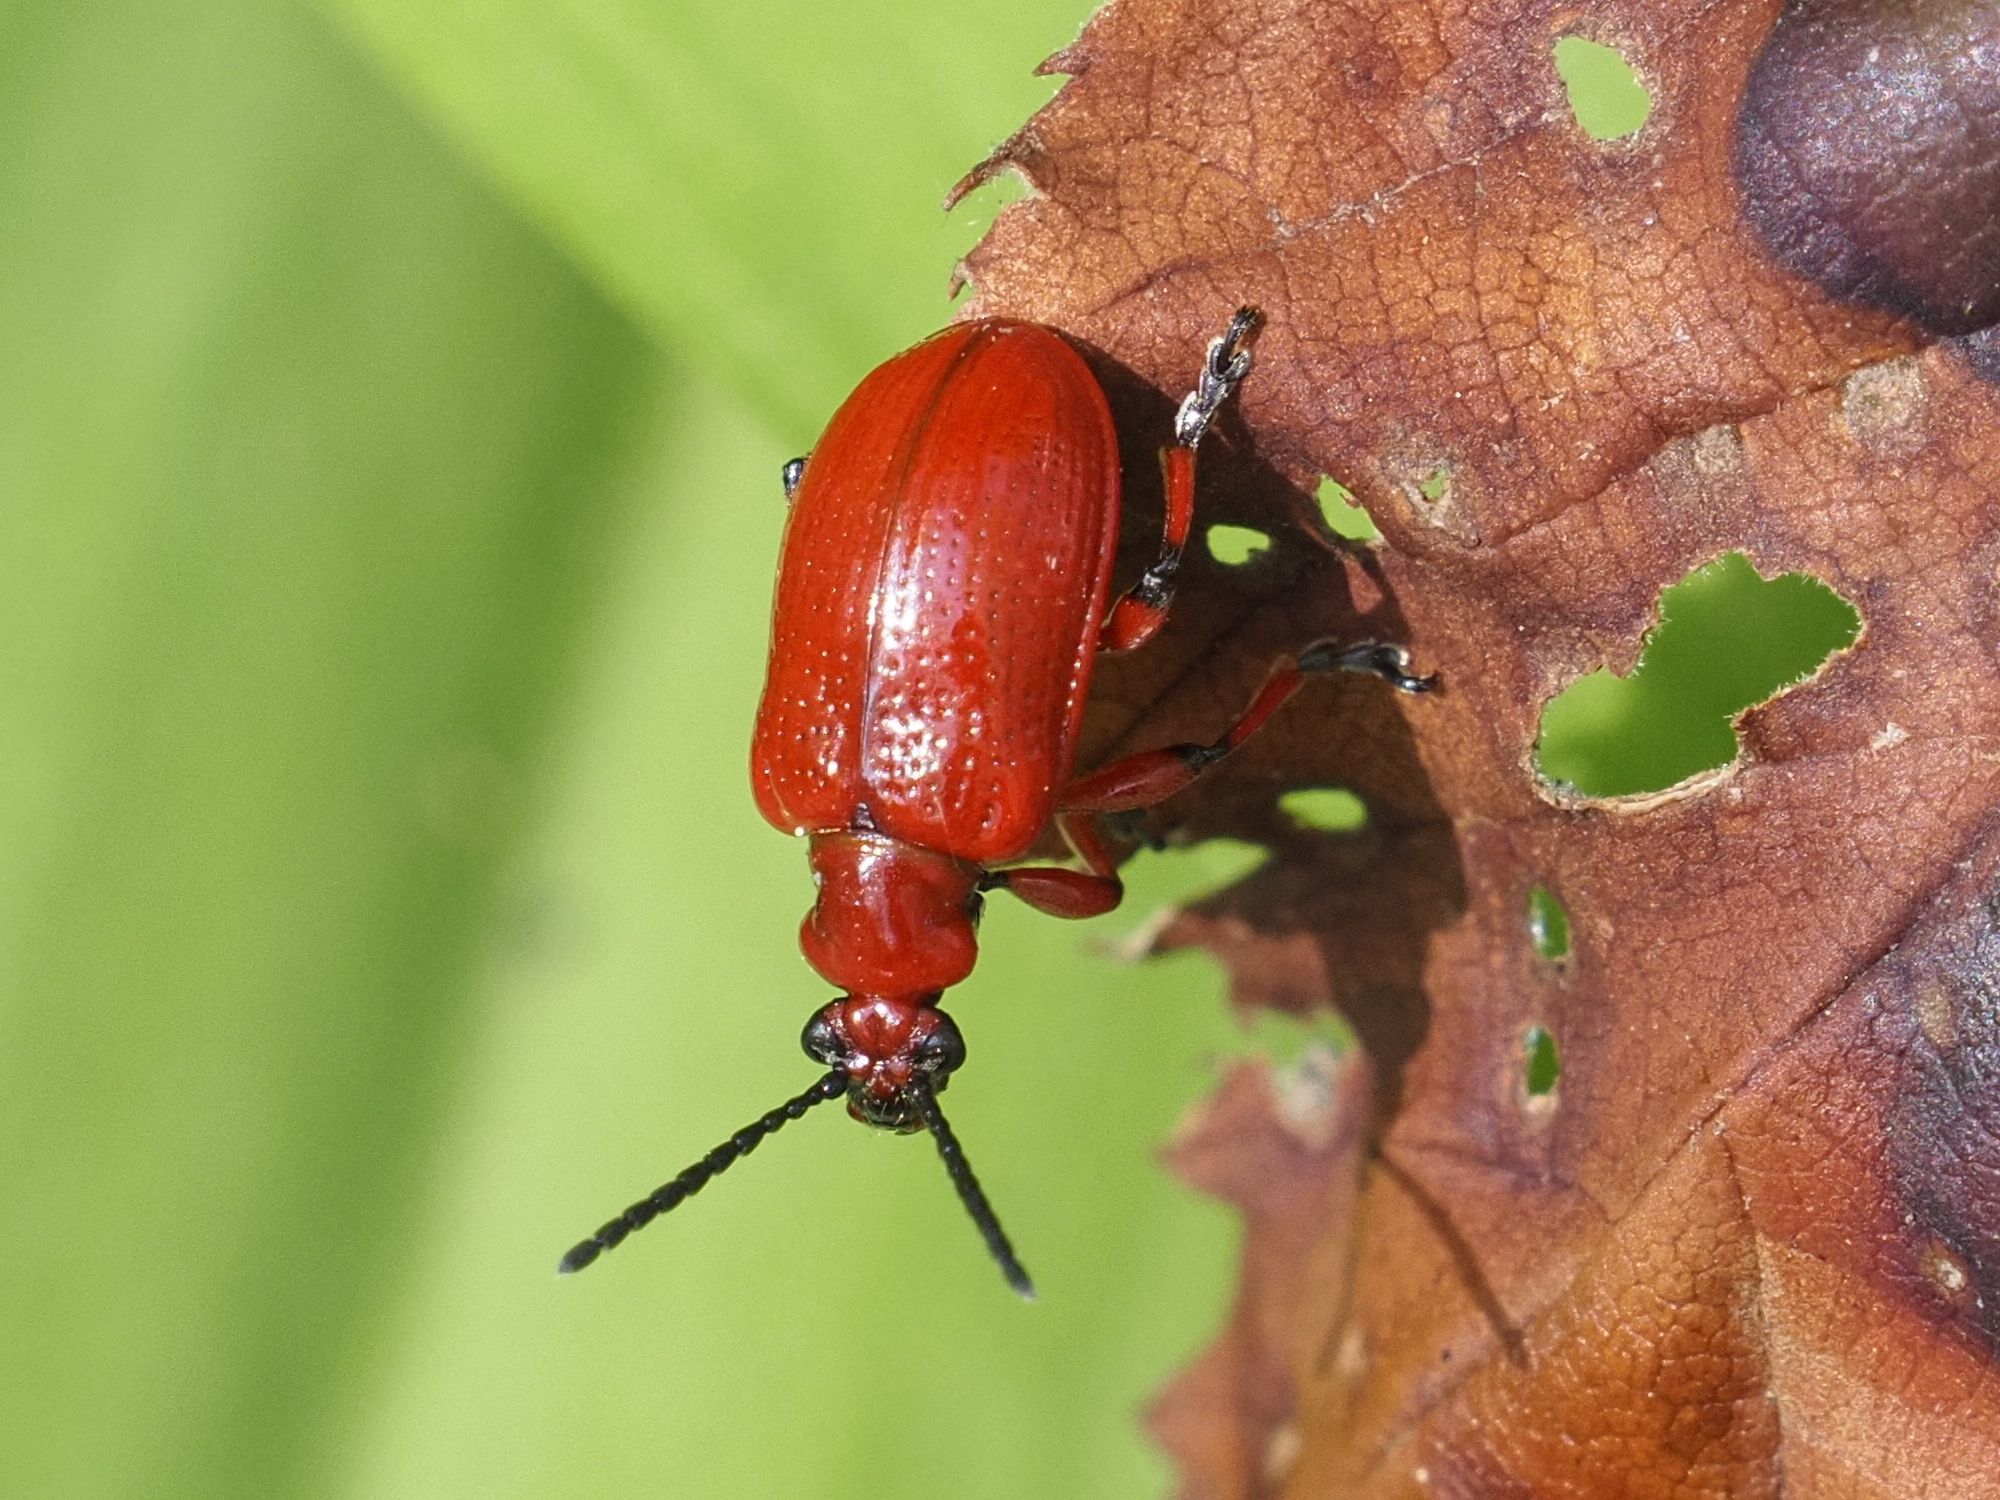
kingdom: Animalia
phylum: Arthropoda
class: Insecta
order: Coleoptera
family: Chrysomelidae
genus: Lilioceris
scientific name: Lilioceris merdigera
